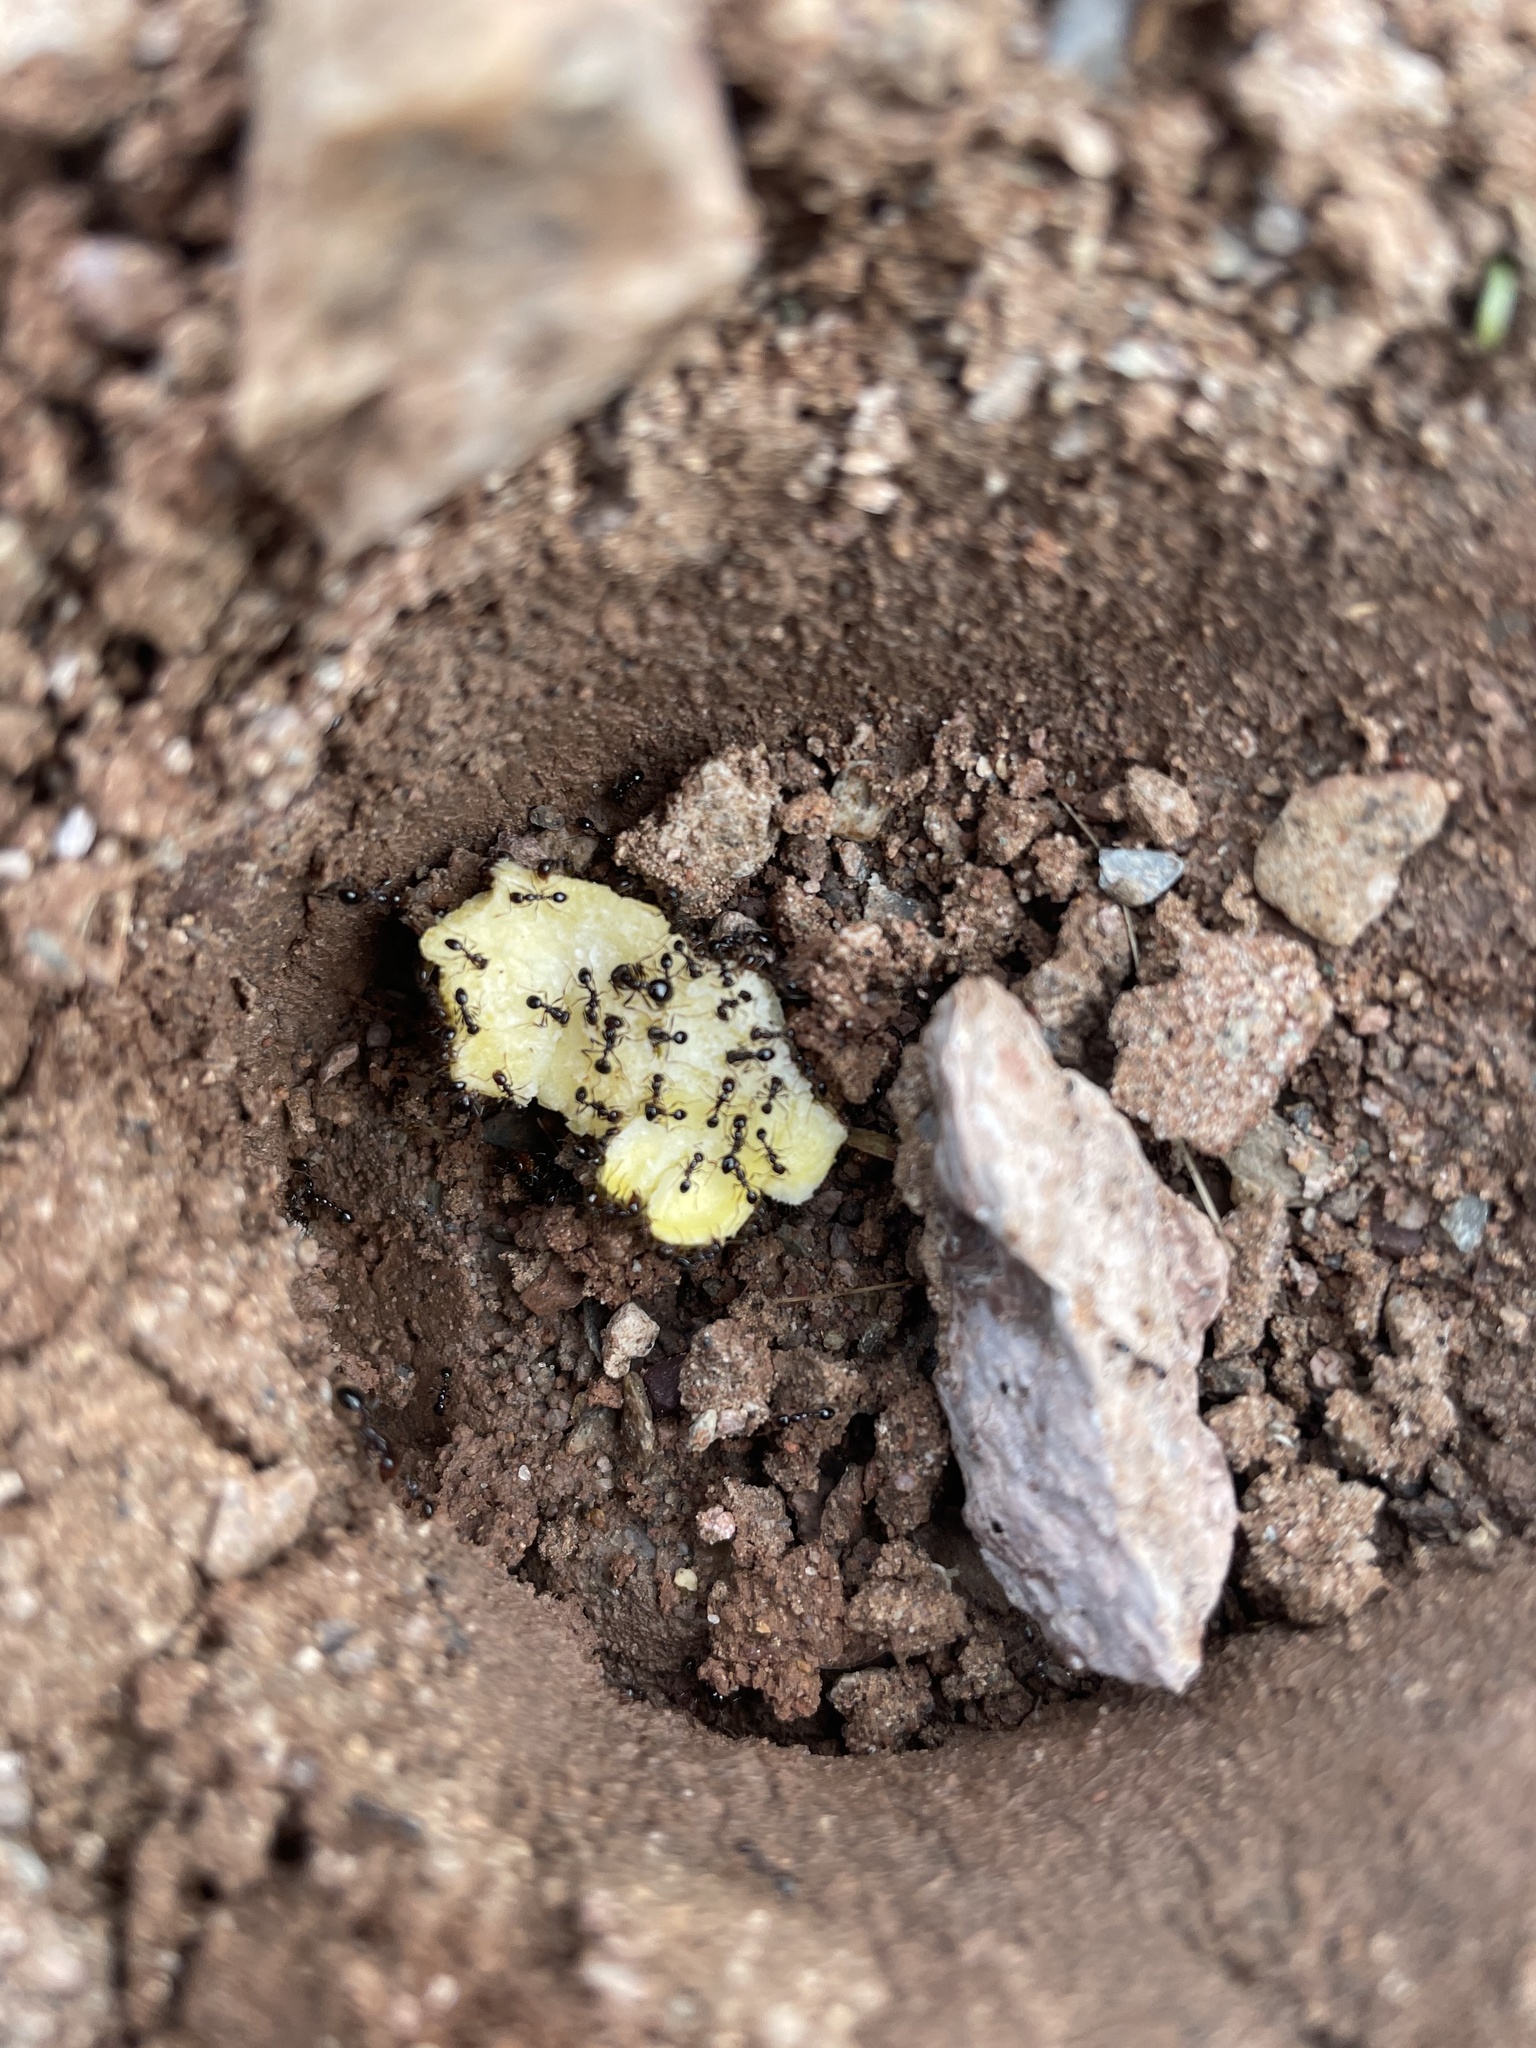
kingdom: Animalia
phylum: Arthropoda
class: Insecta
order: Hymenoptera
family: Formicidae
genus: Solenopsis
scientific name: Solenopsis xyloni
